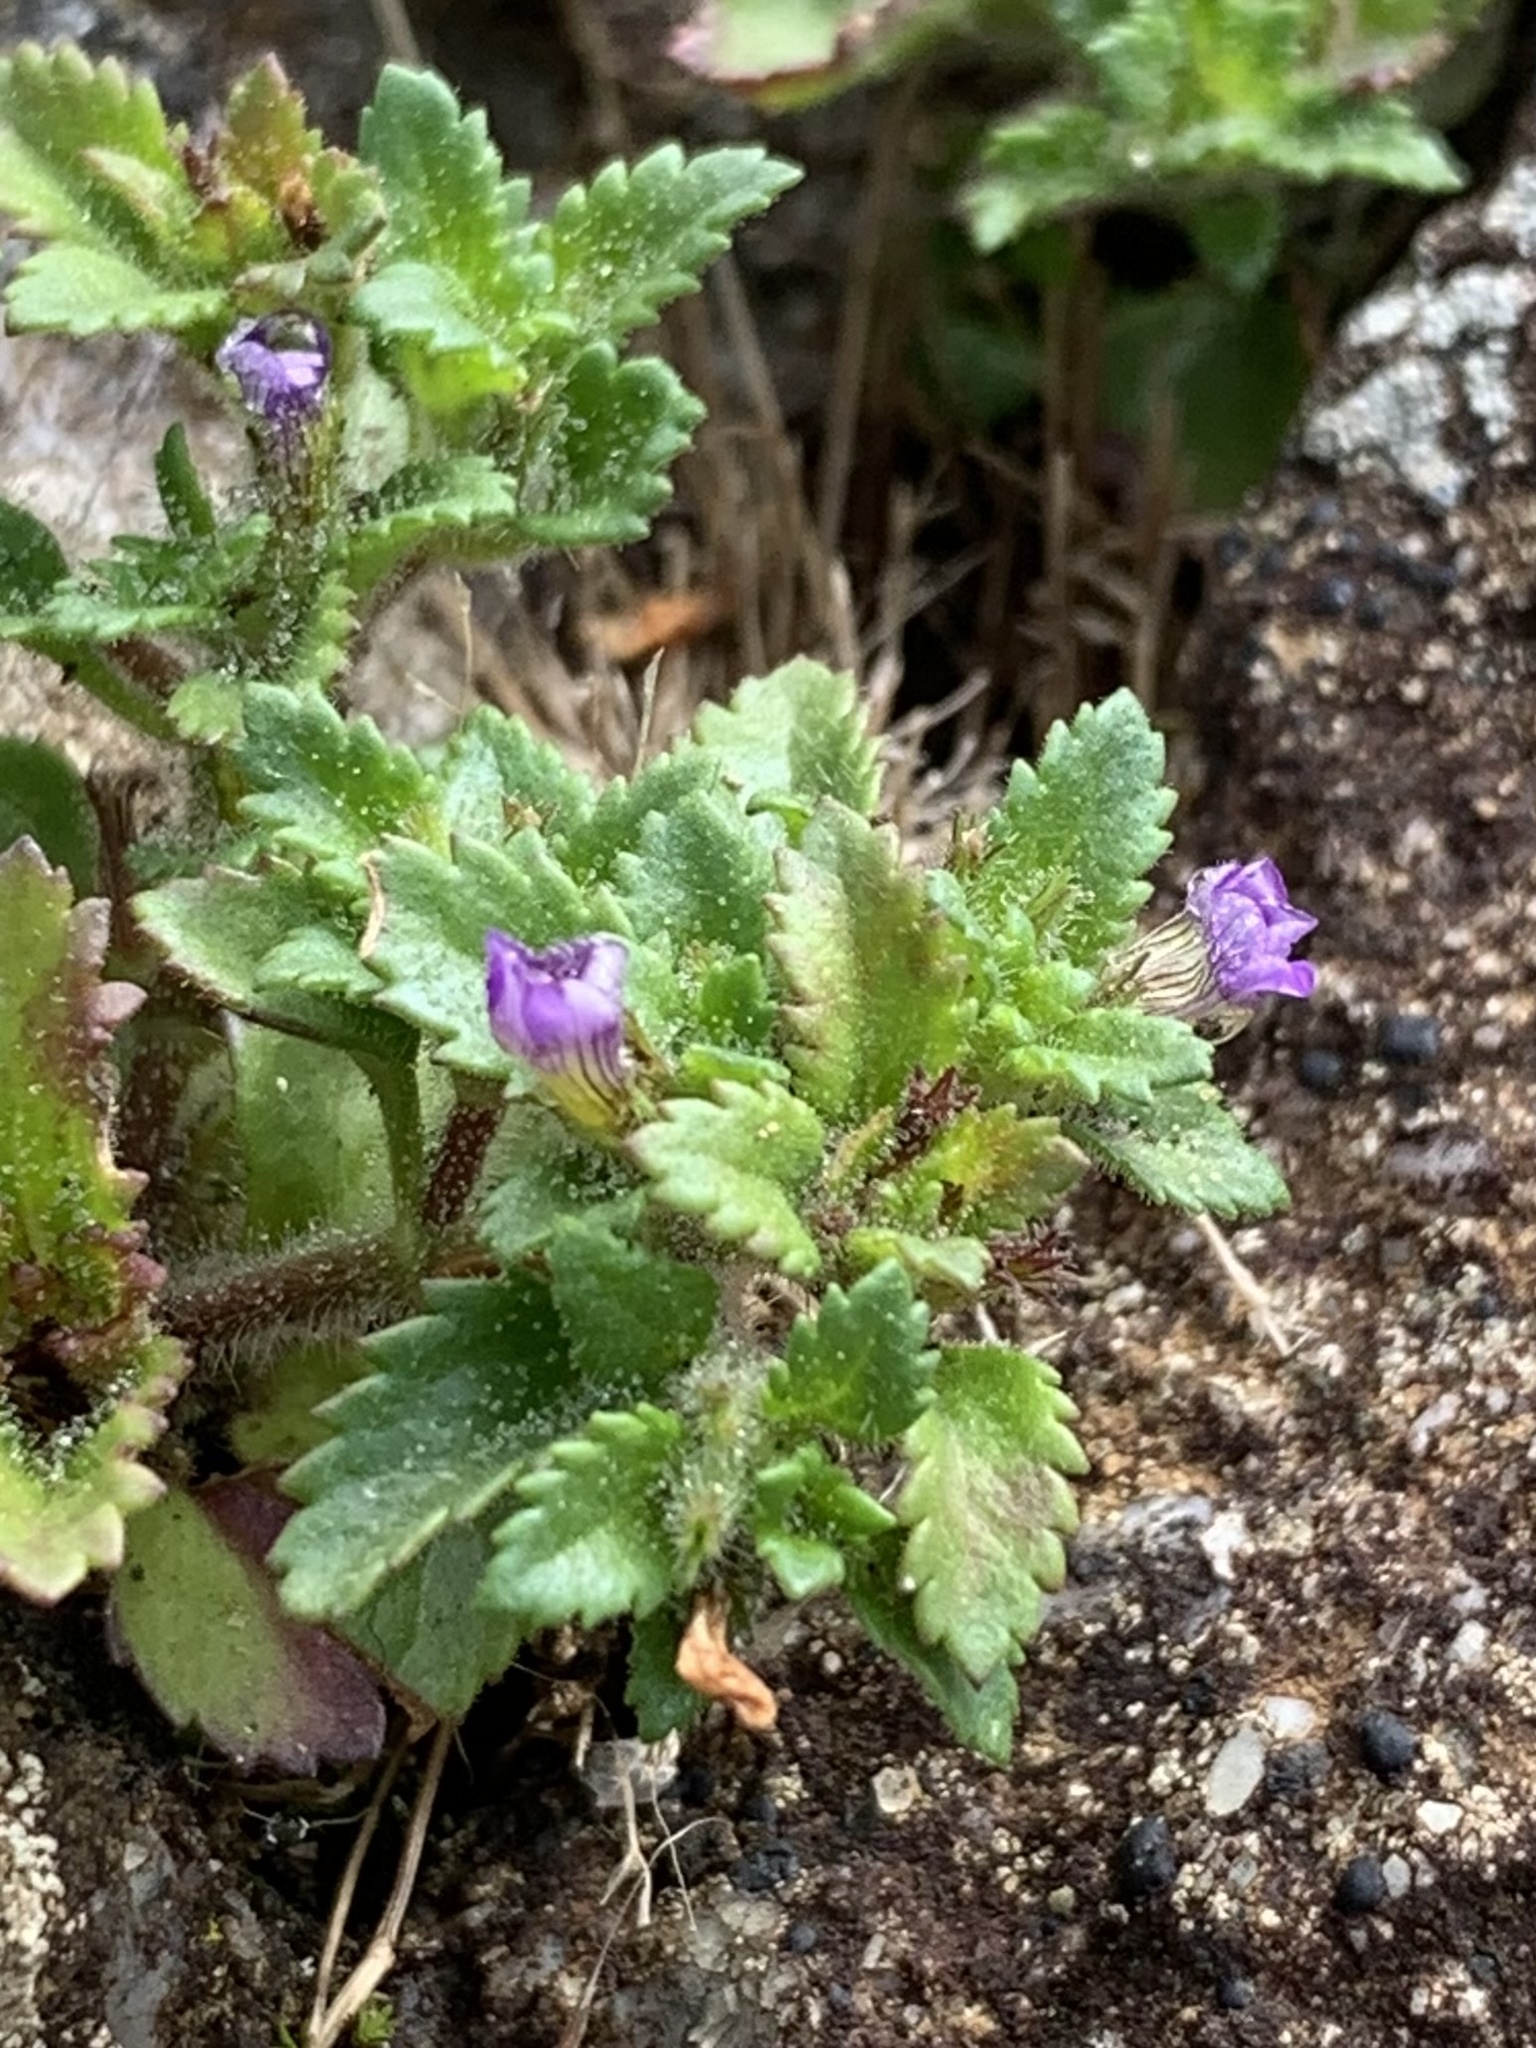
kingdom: Plantae
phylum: Tracheophyta
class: Magnoliopsida
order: Lamiales
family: Plantaginaceae
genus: Stemodia
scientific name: Stemodia verticillata
